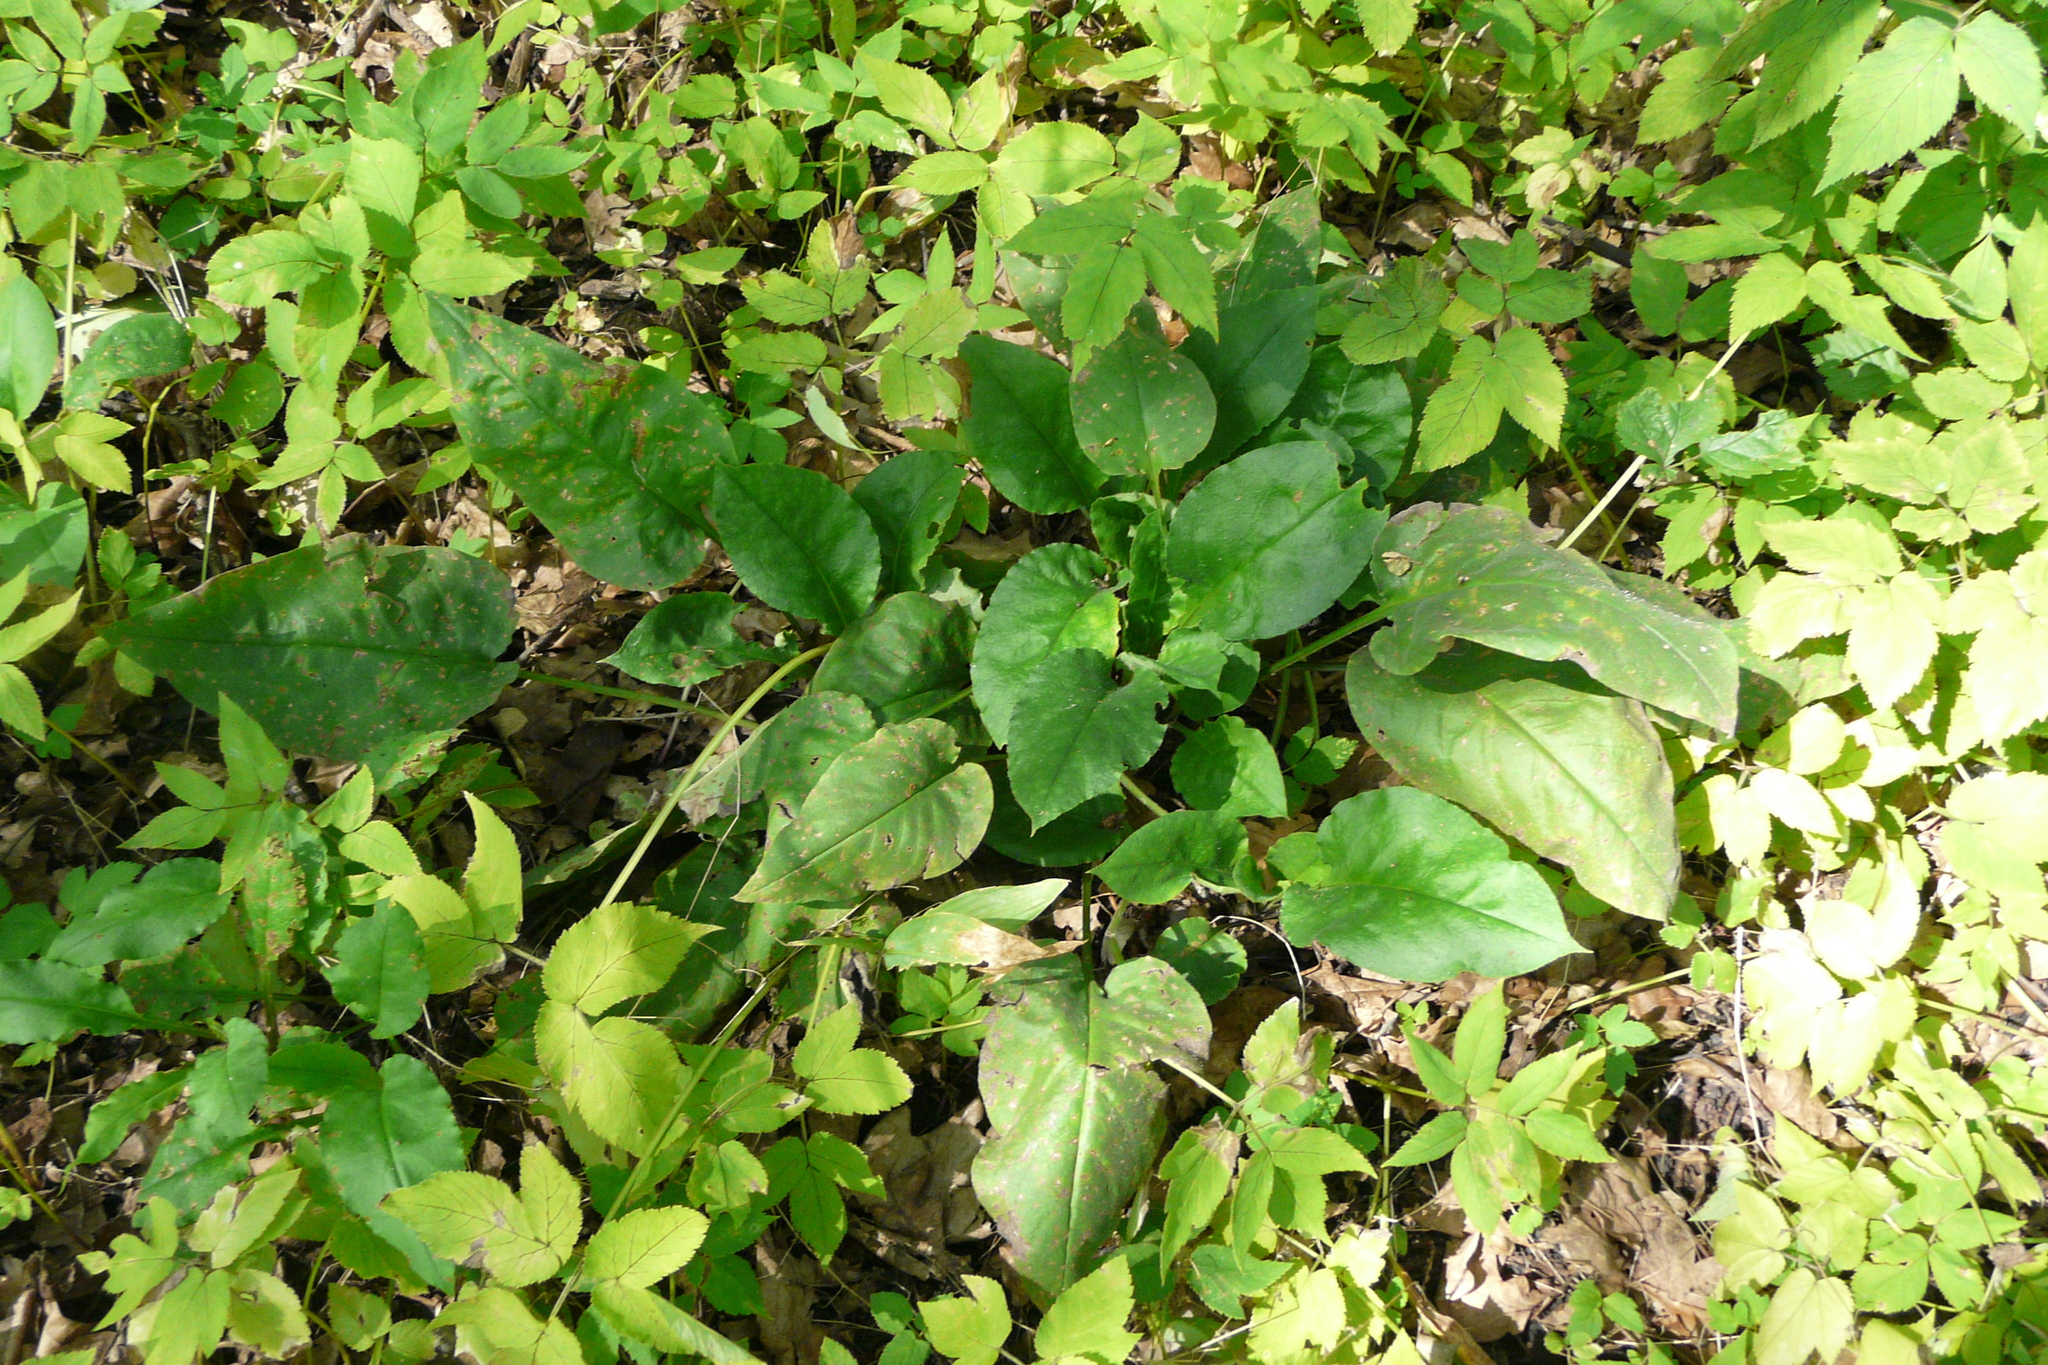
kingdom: Plantae
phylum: Tracheophyta
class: Magnoliopsida
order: Boraginales
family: Boraginaceae
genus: Pulmonaria
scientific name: Pulmonaria obscura
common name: Suffolk lungwort
